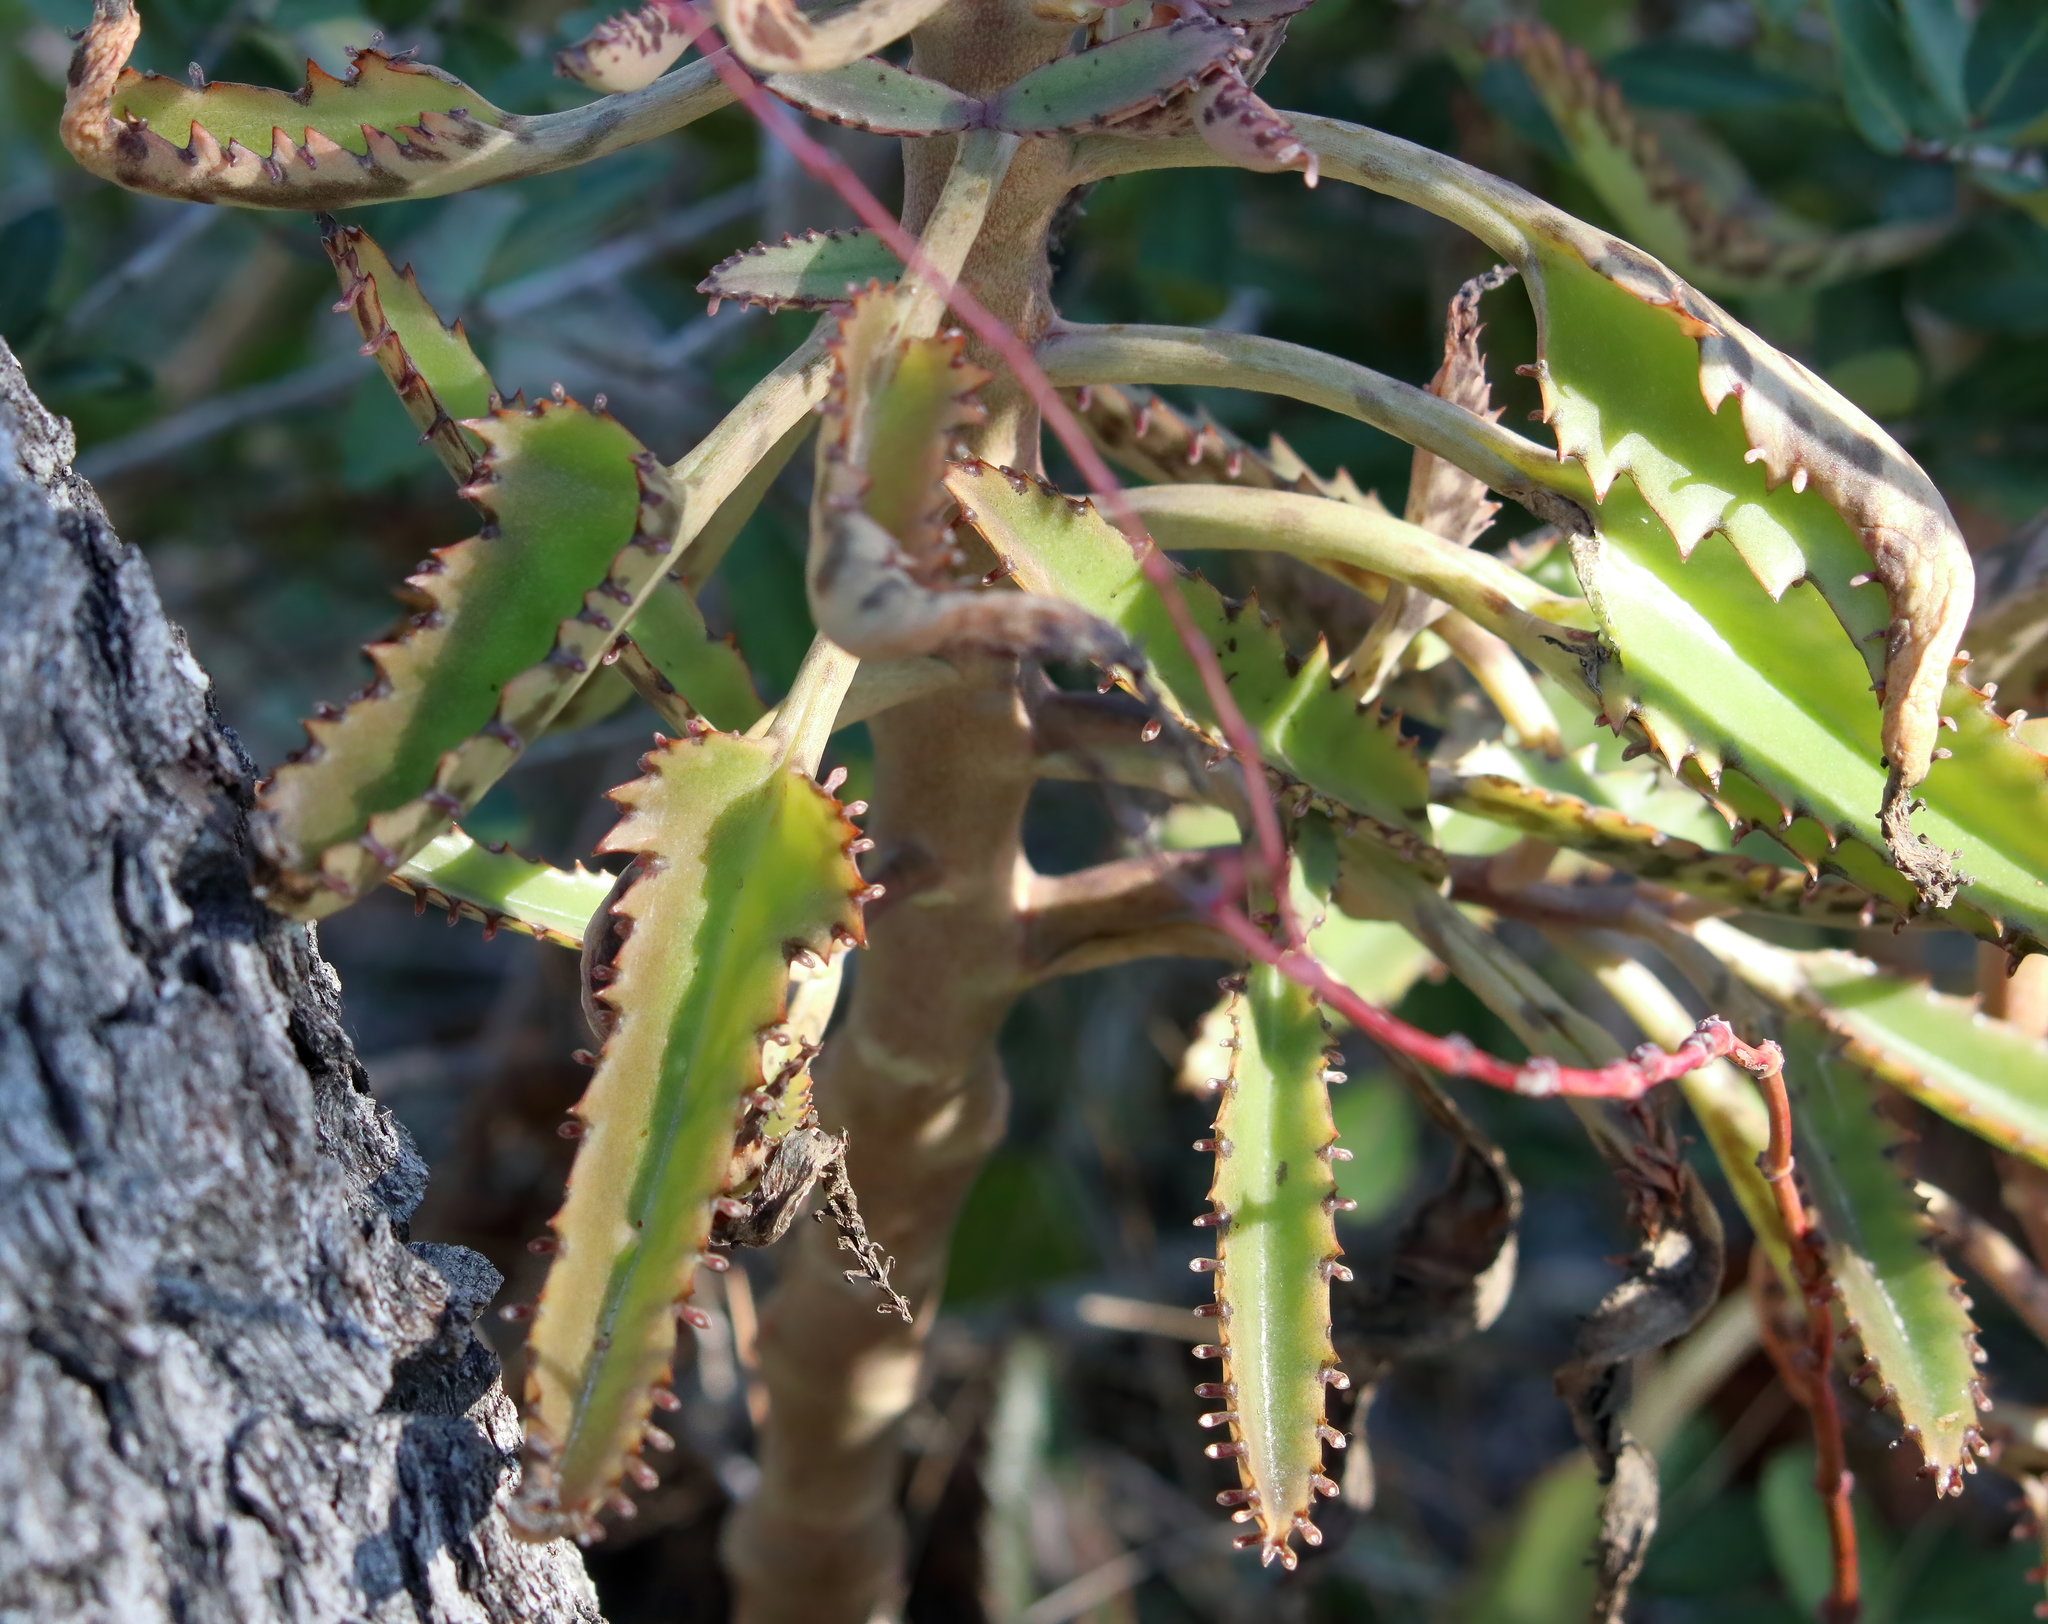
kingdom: Plantae
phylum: Tracheophyta
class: Magnoliopsida
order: Saxifragales
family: Crassulaceae
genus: Kalanchoe
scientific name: Kalanchoe houghtonii
